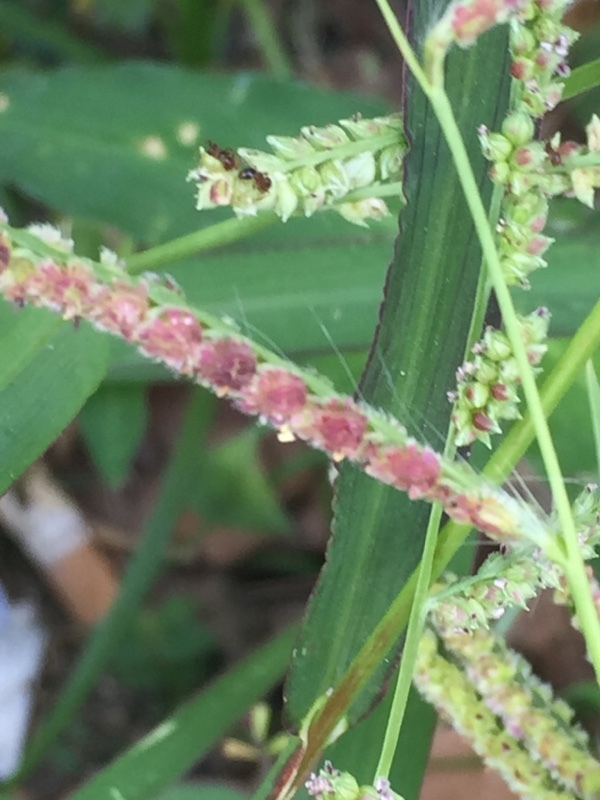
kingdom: Plantae
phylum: Tracheophyta
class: Liliopsida
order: Poales
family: Poaceae
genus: Echinochloa
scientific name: Echinochloa colonum
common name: Jungle rice
